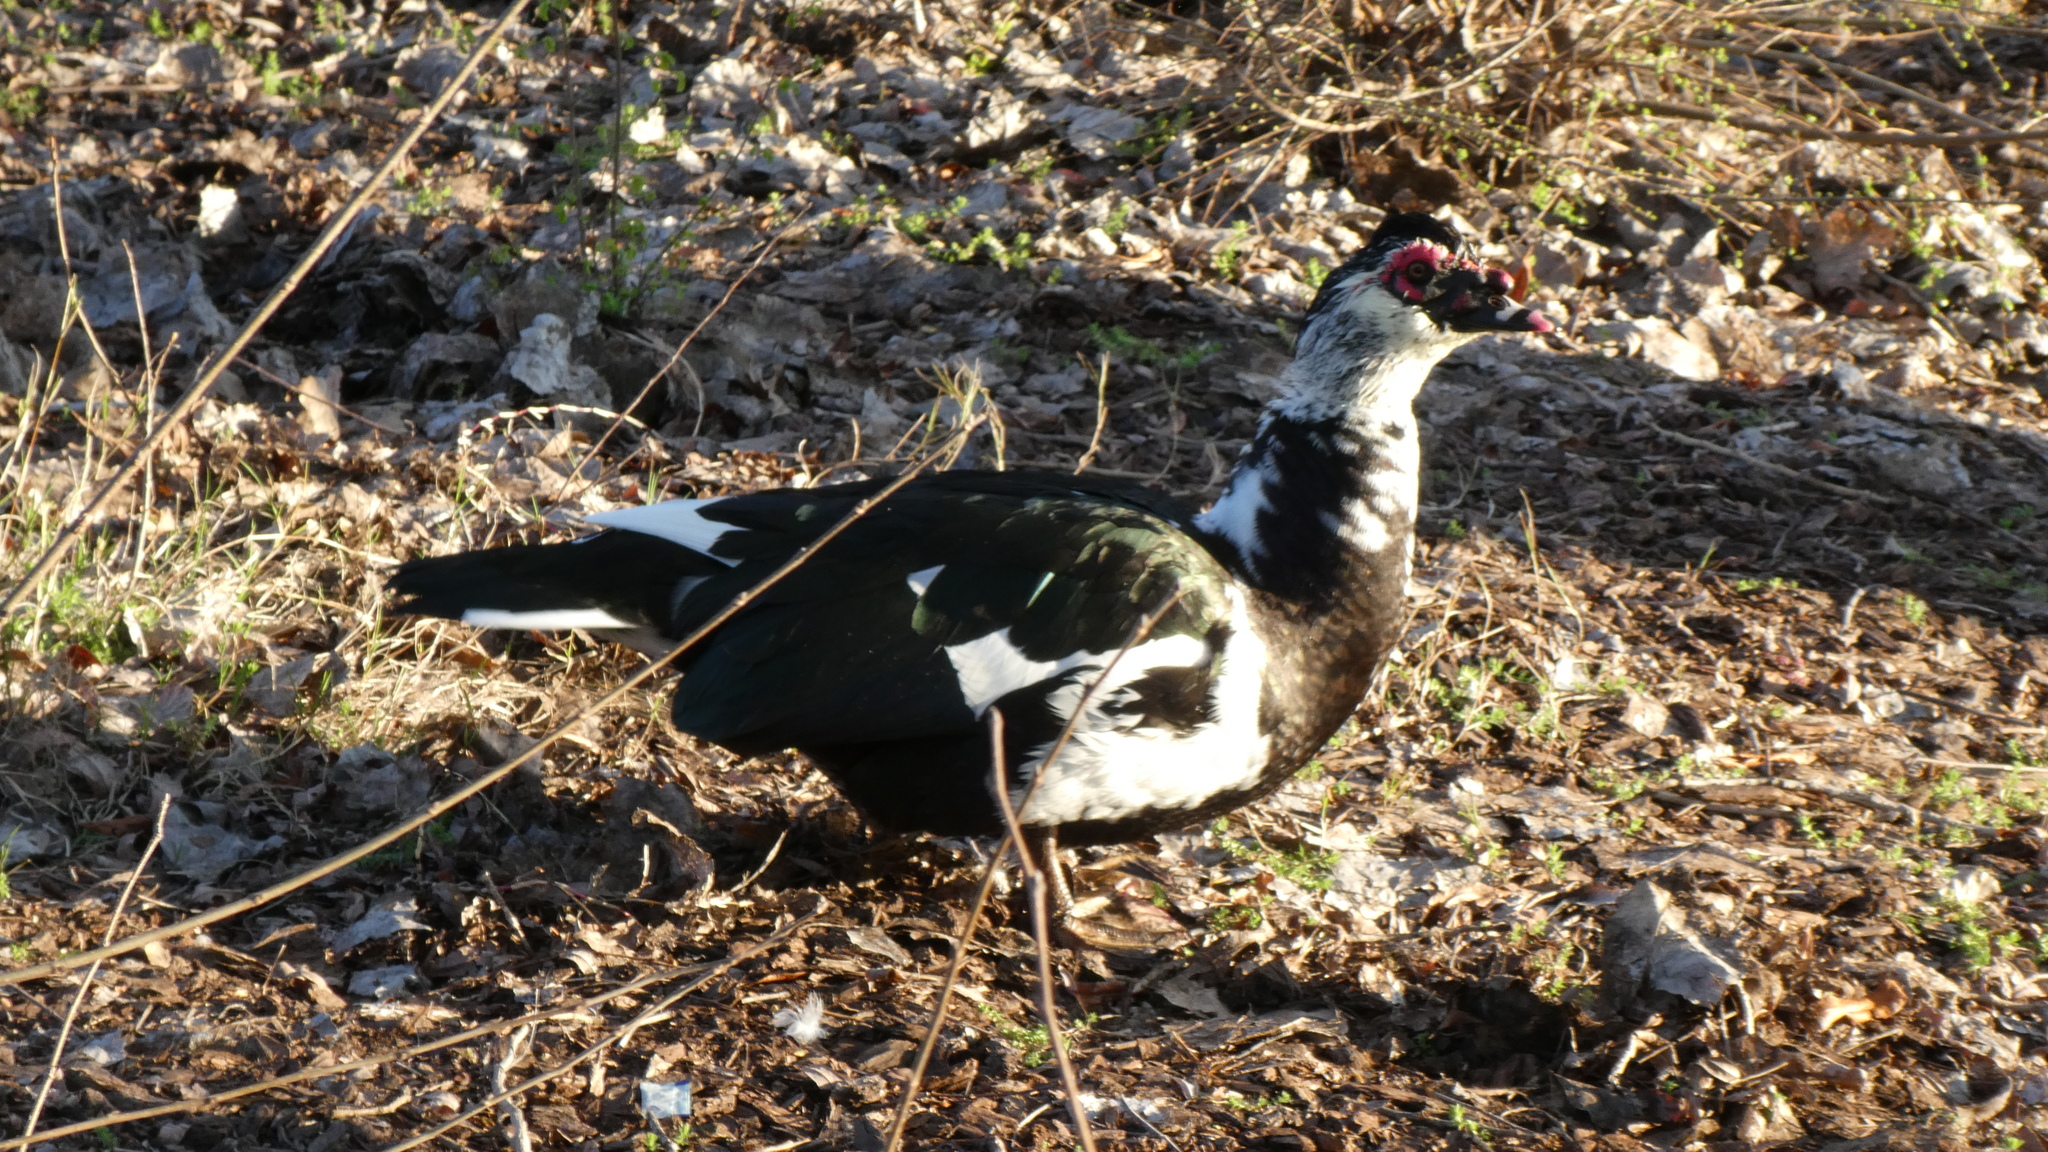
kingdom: Animalia
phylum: Chordata
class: Aves
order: Anseriformes
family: Anatidae
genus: Cairina
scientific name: Cairina moschata
